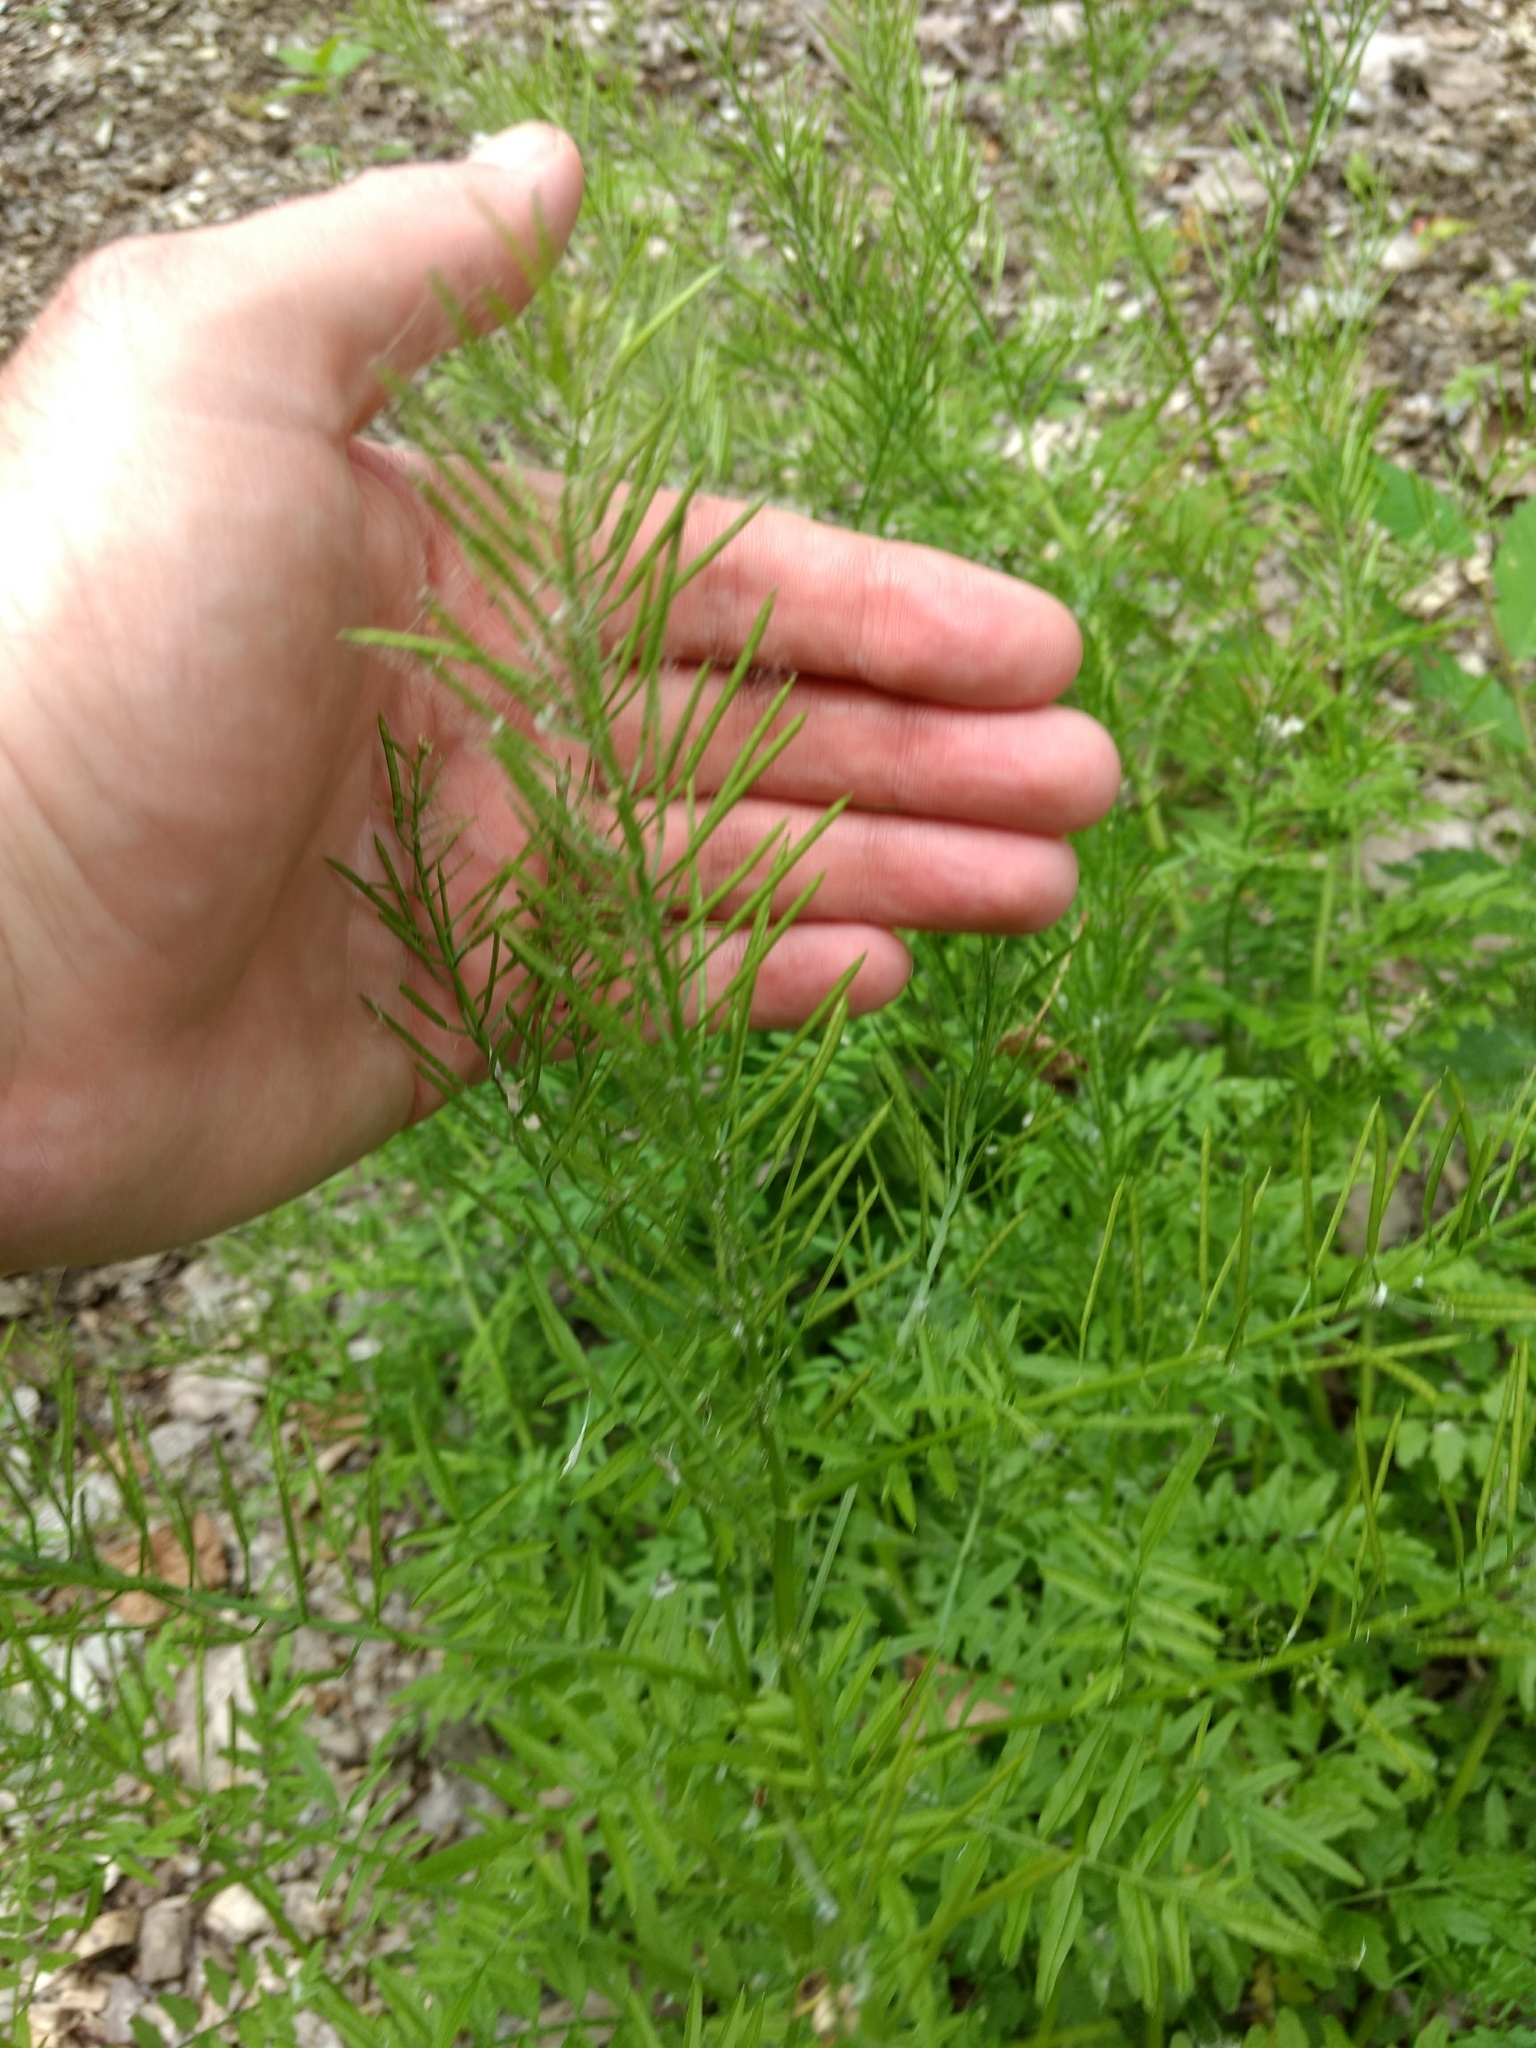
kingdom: Plantae
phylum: Tracheophyta
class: Magnoliopsida
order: Brassicales
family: Brassicaceae
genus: Cardamine
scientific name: Cardamine impatiens
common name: Narrow-leaved bitter-cress
